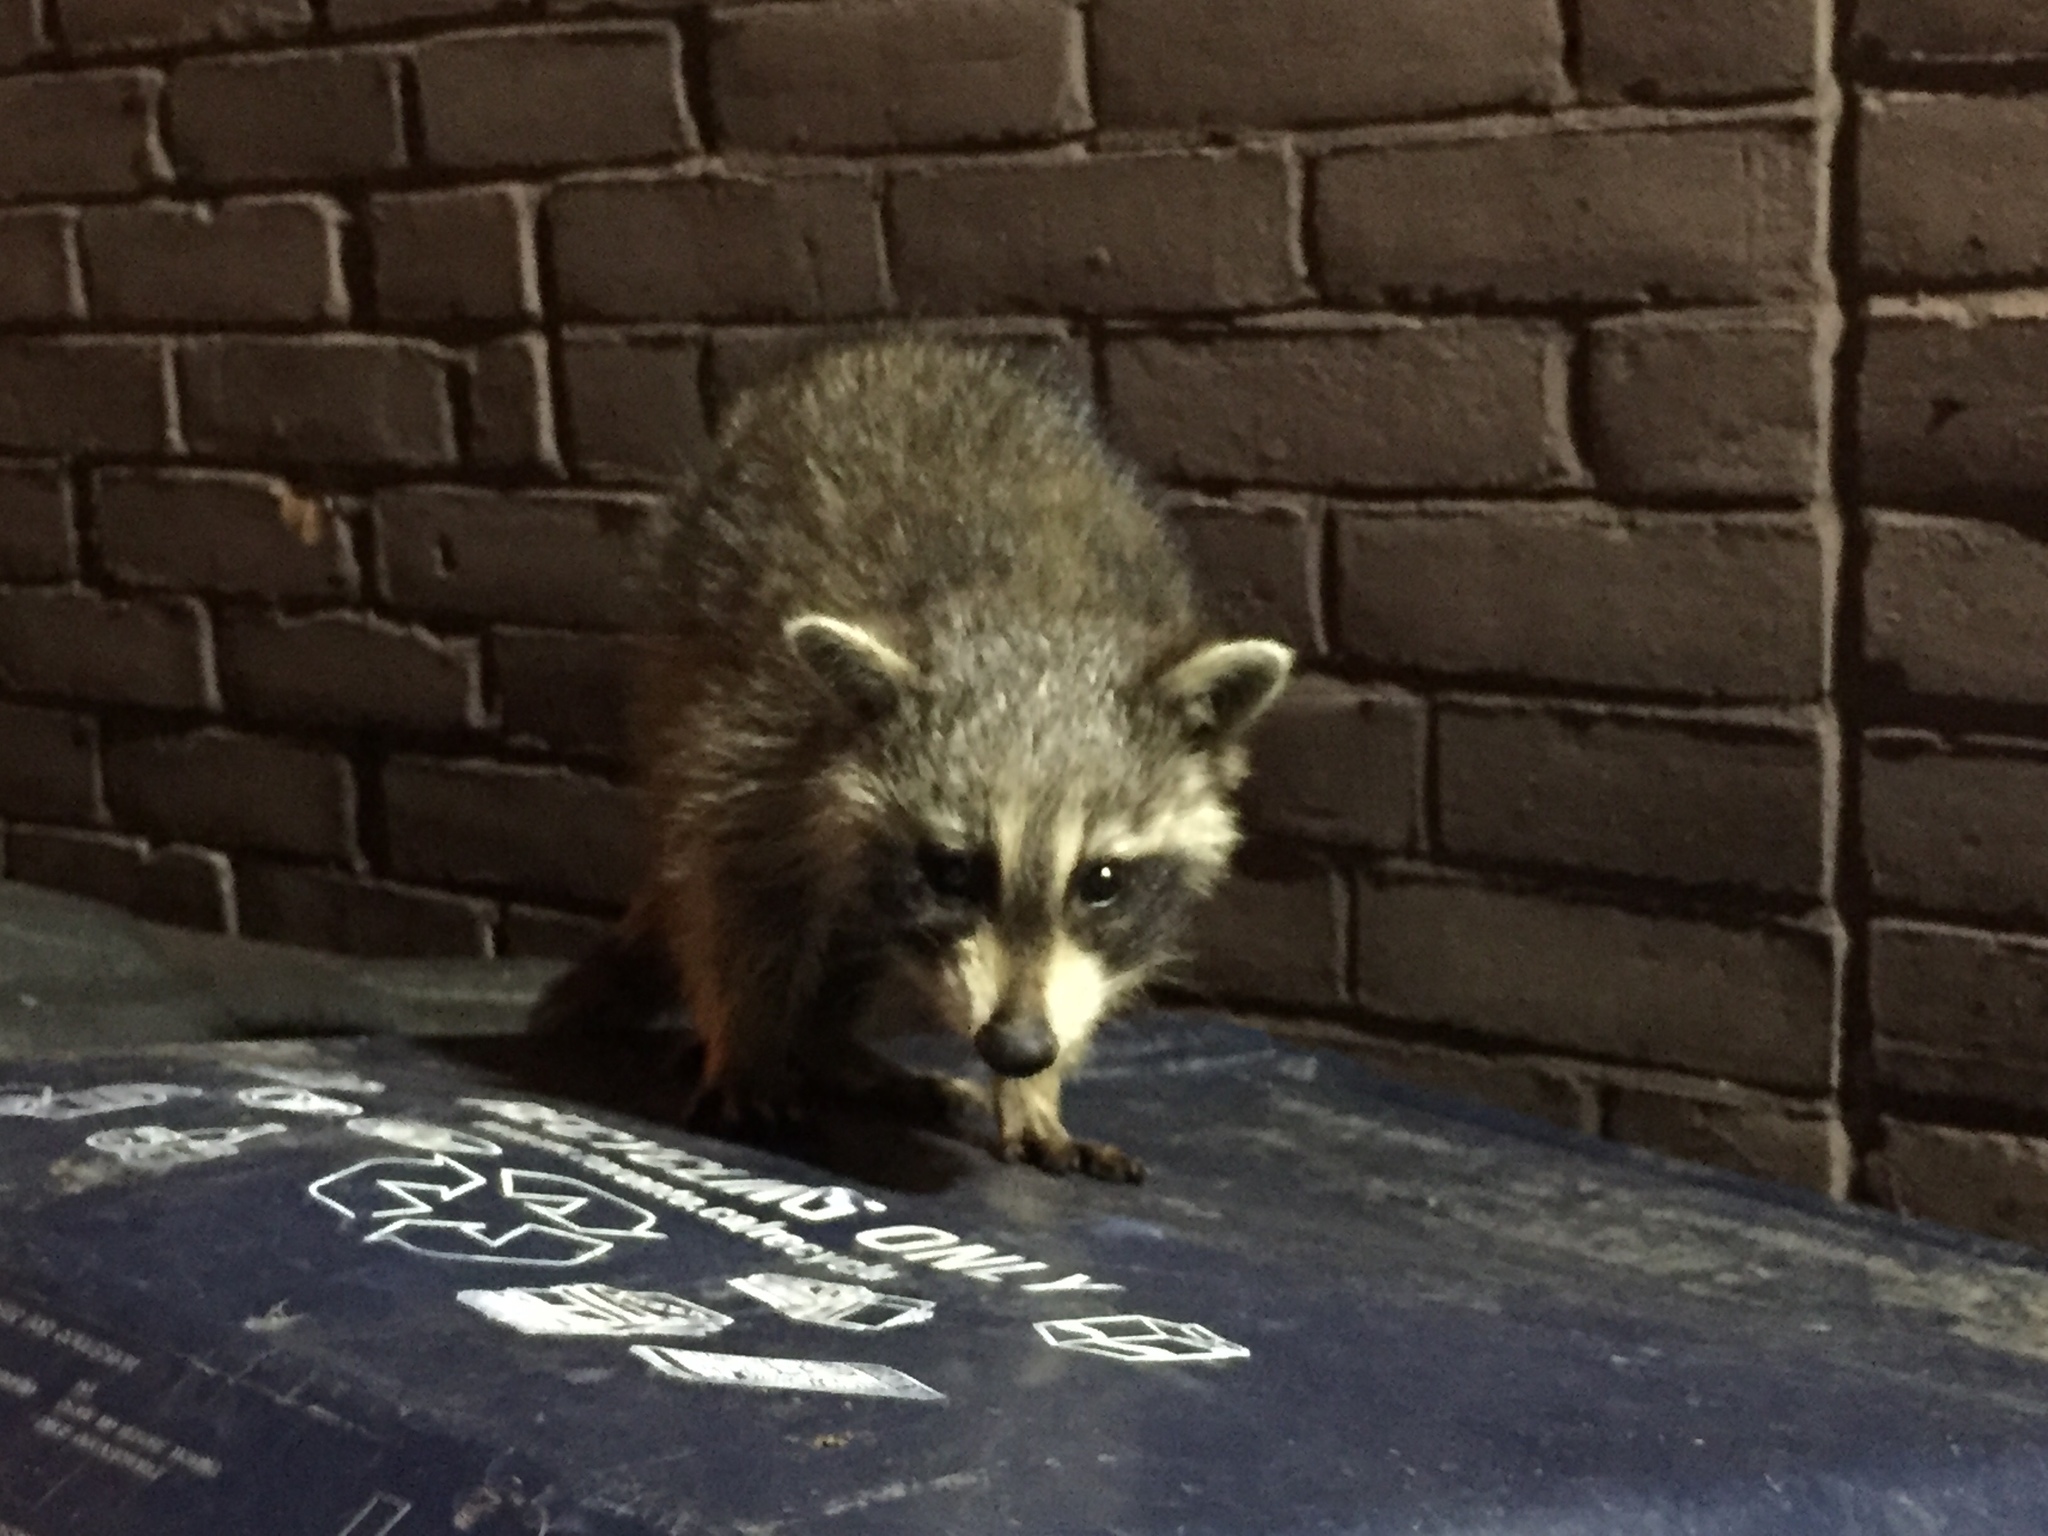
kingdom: Animalia
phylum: Chordata
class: Mammalia
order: Carnivora
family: Procyonidae
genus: Procyon
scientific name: Procyon lotor
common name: Raccoon
